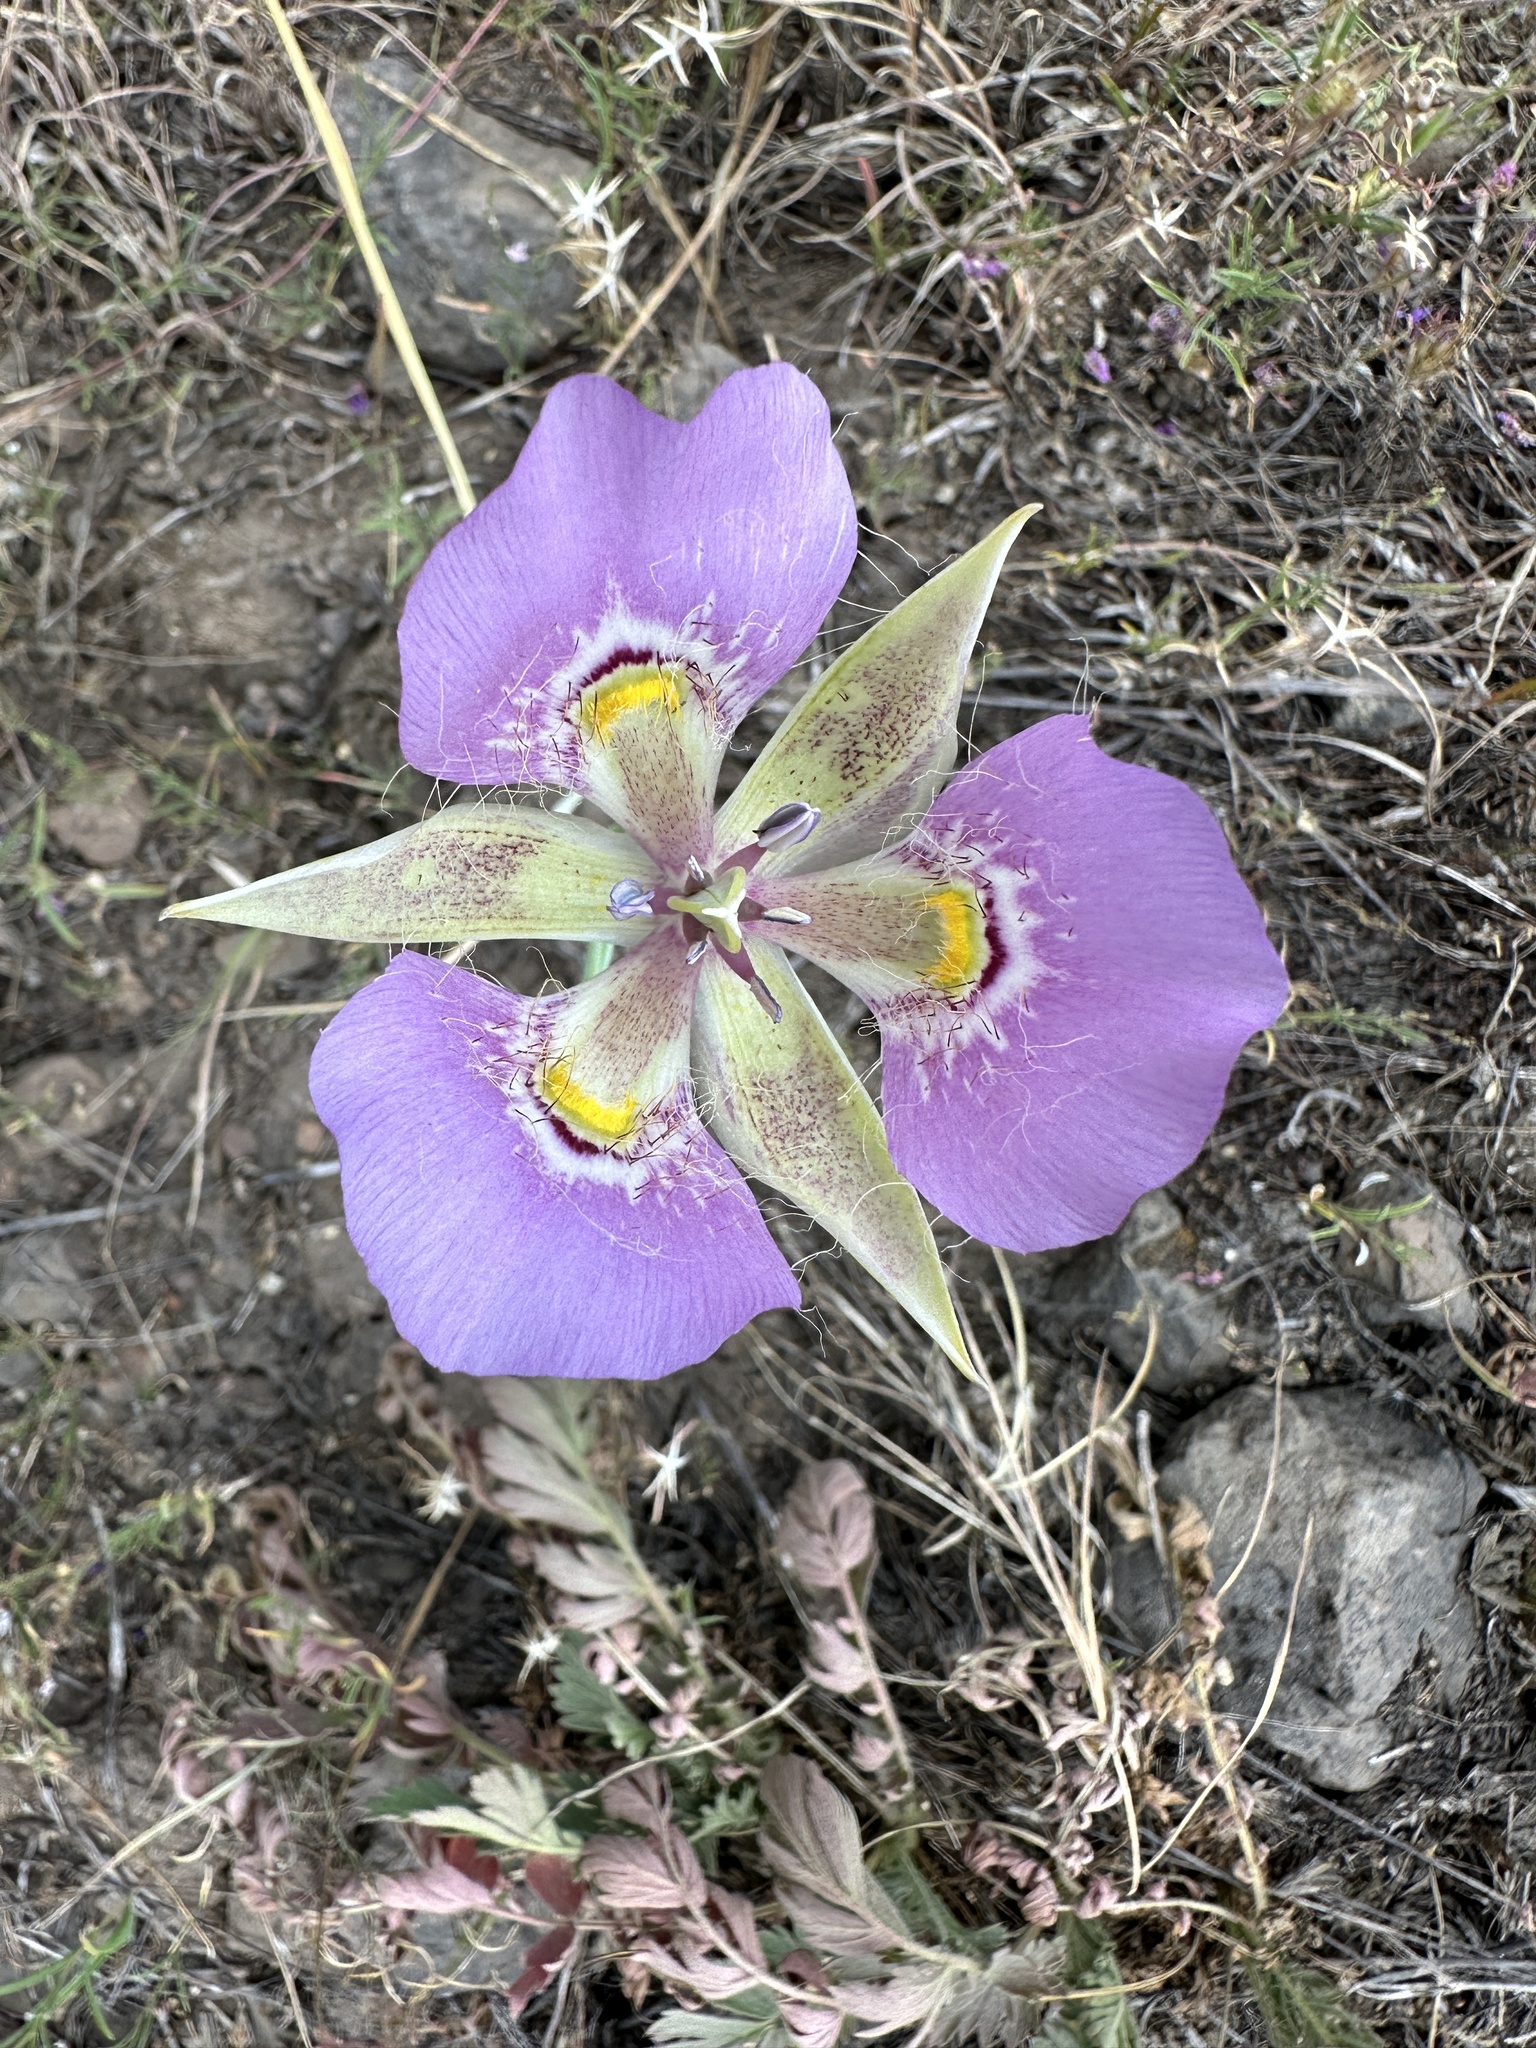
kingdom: Plantae
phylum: Tracheophyta
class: Liliopsida
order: Liliales
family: Liliaceae
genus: Calochortus
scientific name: Calochortus nitidus
